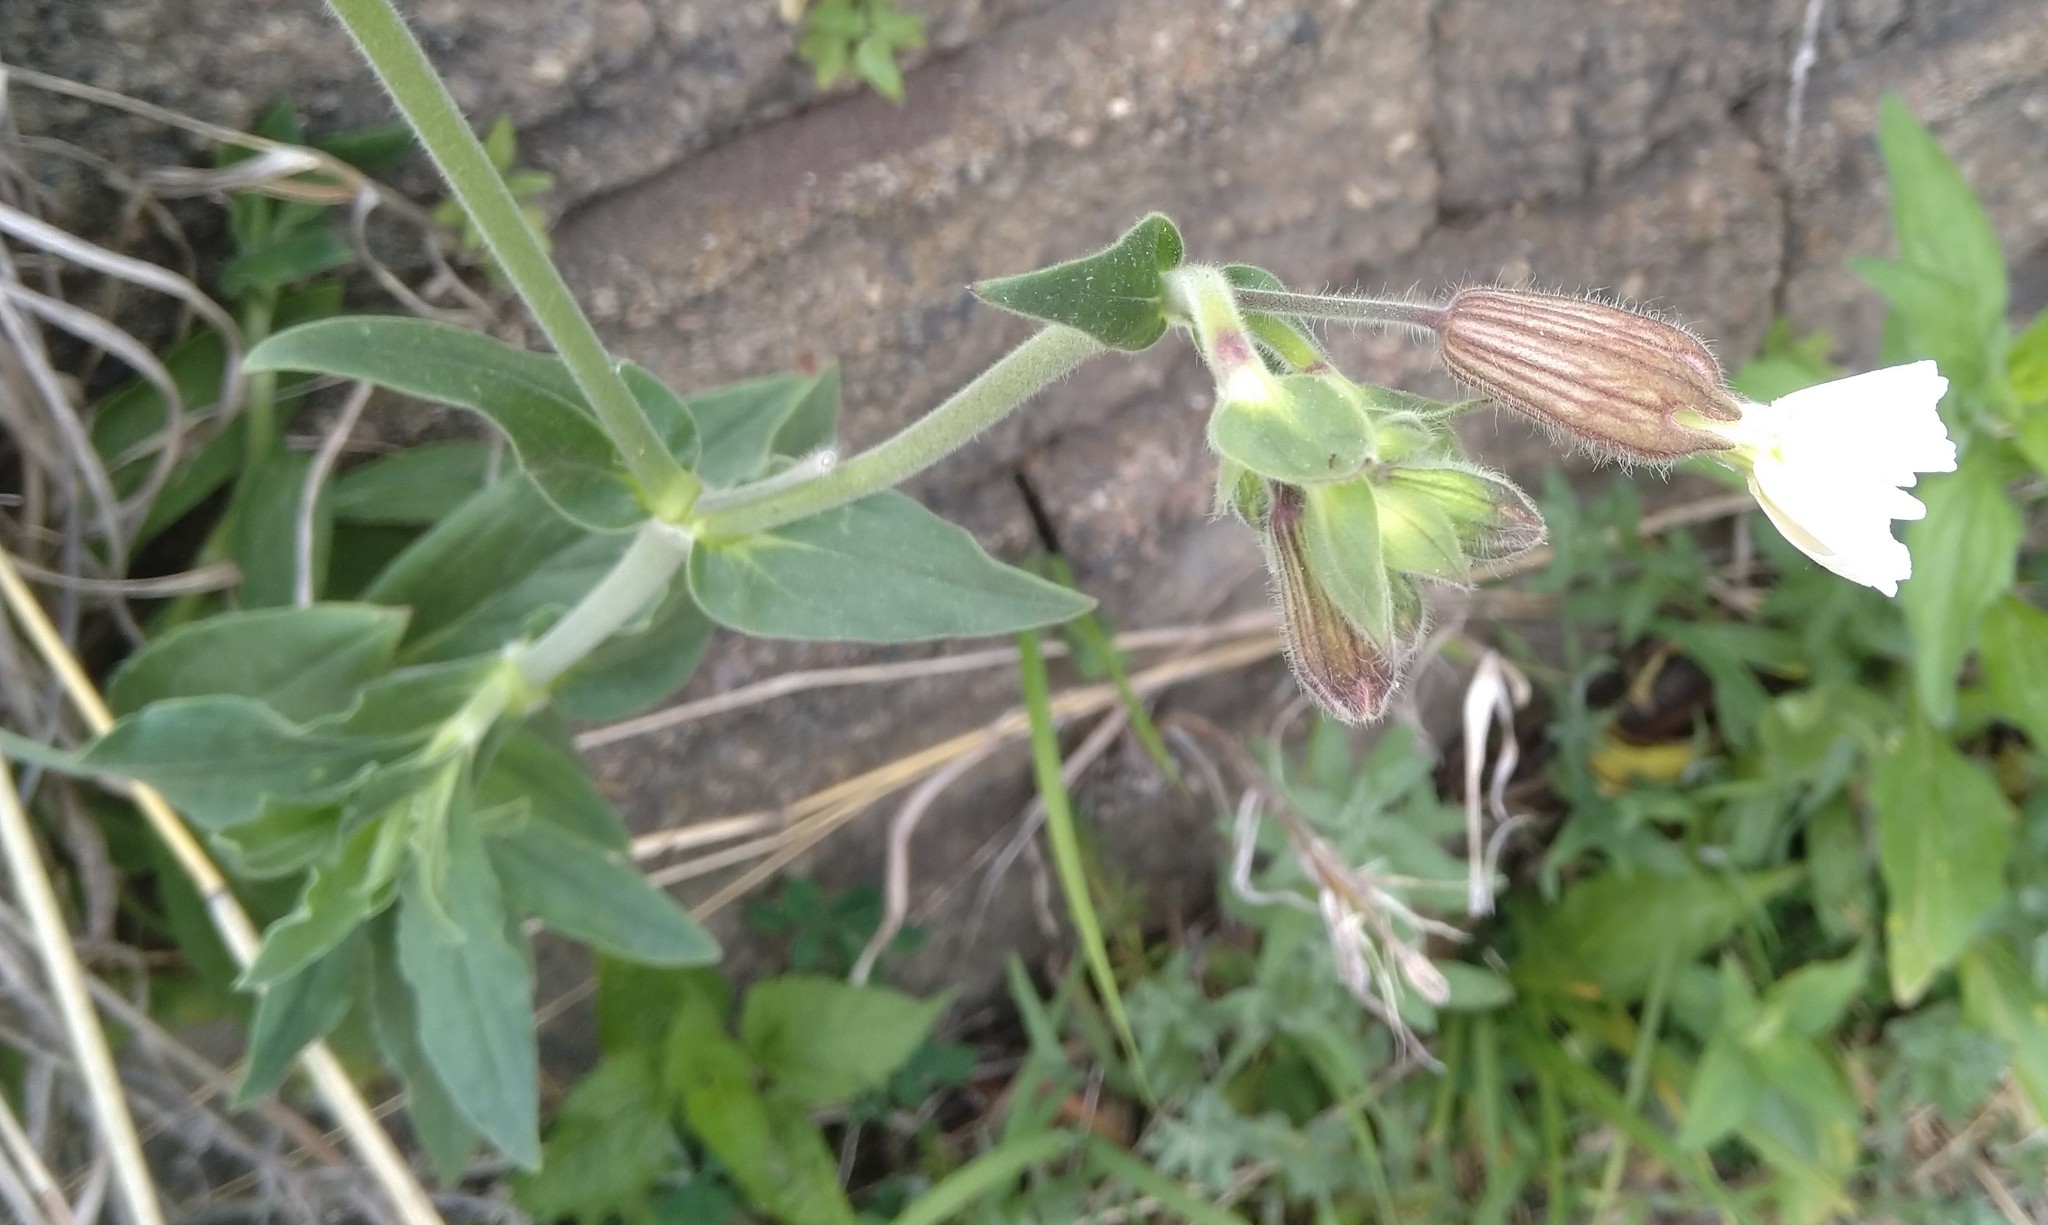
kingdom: Plantae
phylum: Tracheophyta
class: Magnoliopsida
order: Caryophyllales
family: Caryophyllaceae
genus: Silene
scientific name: Silene latifolia
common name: White campion
